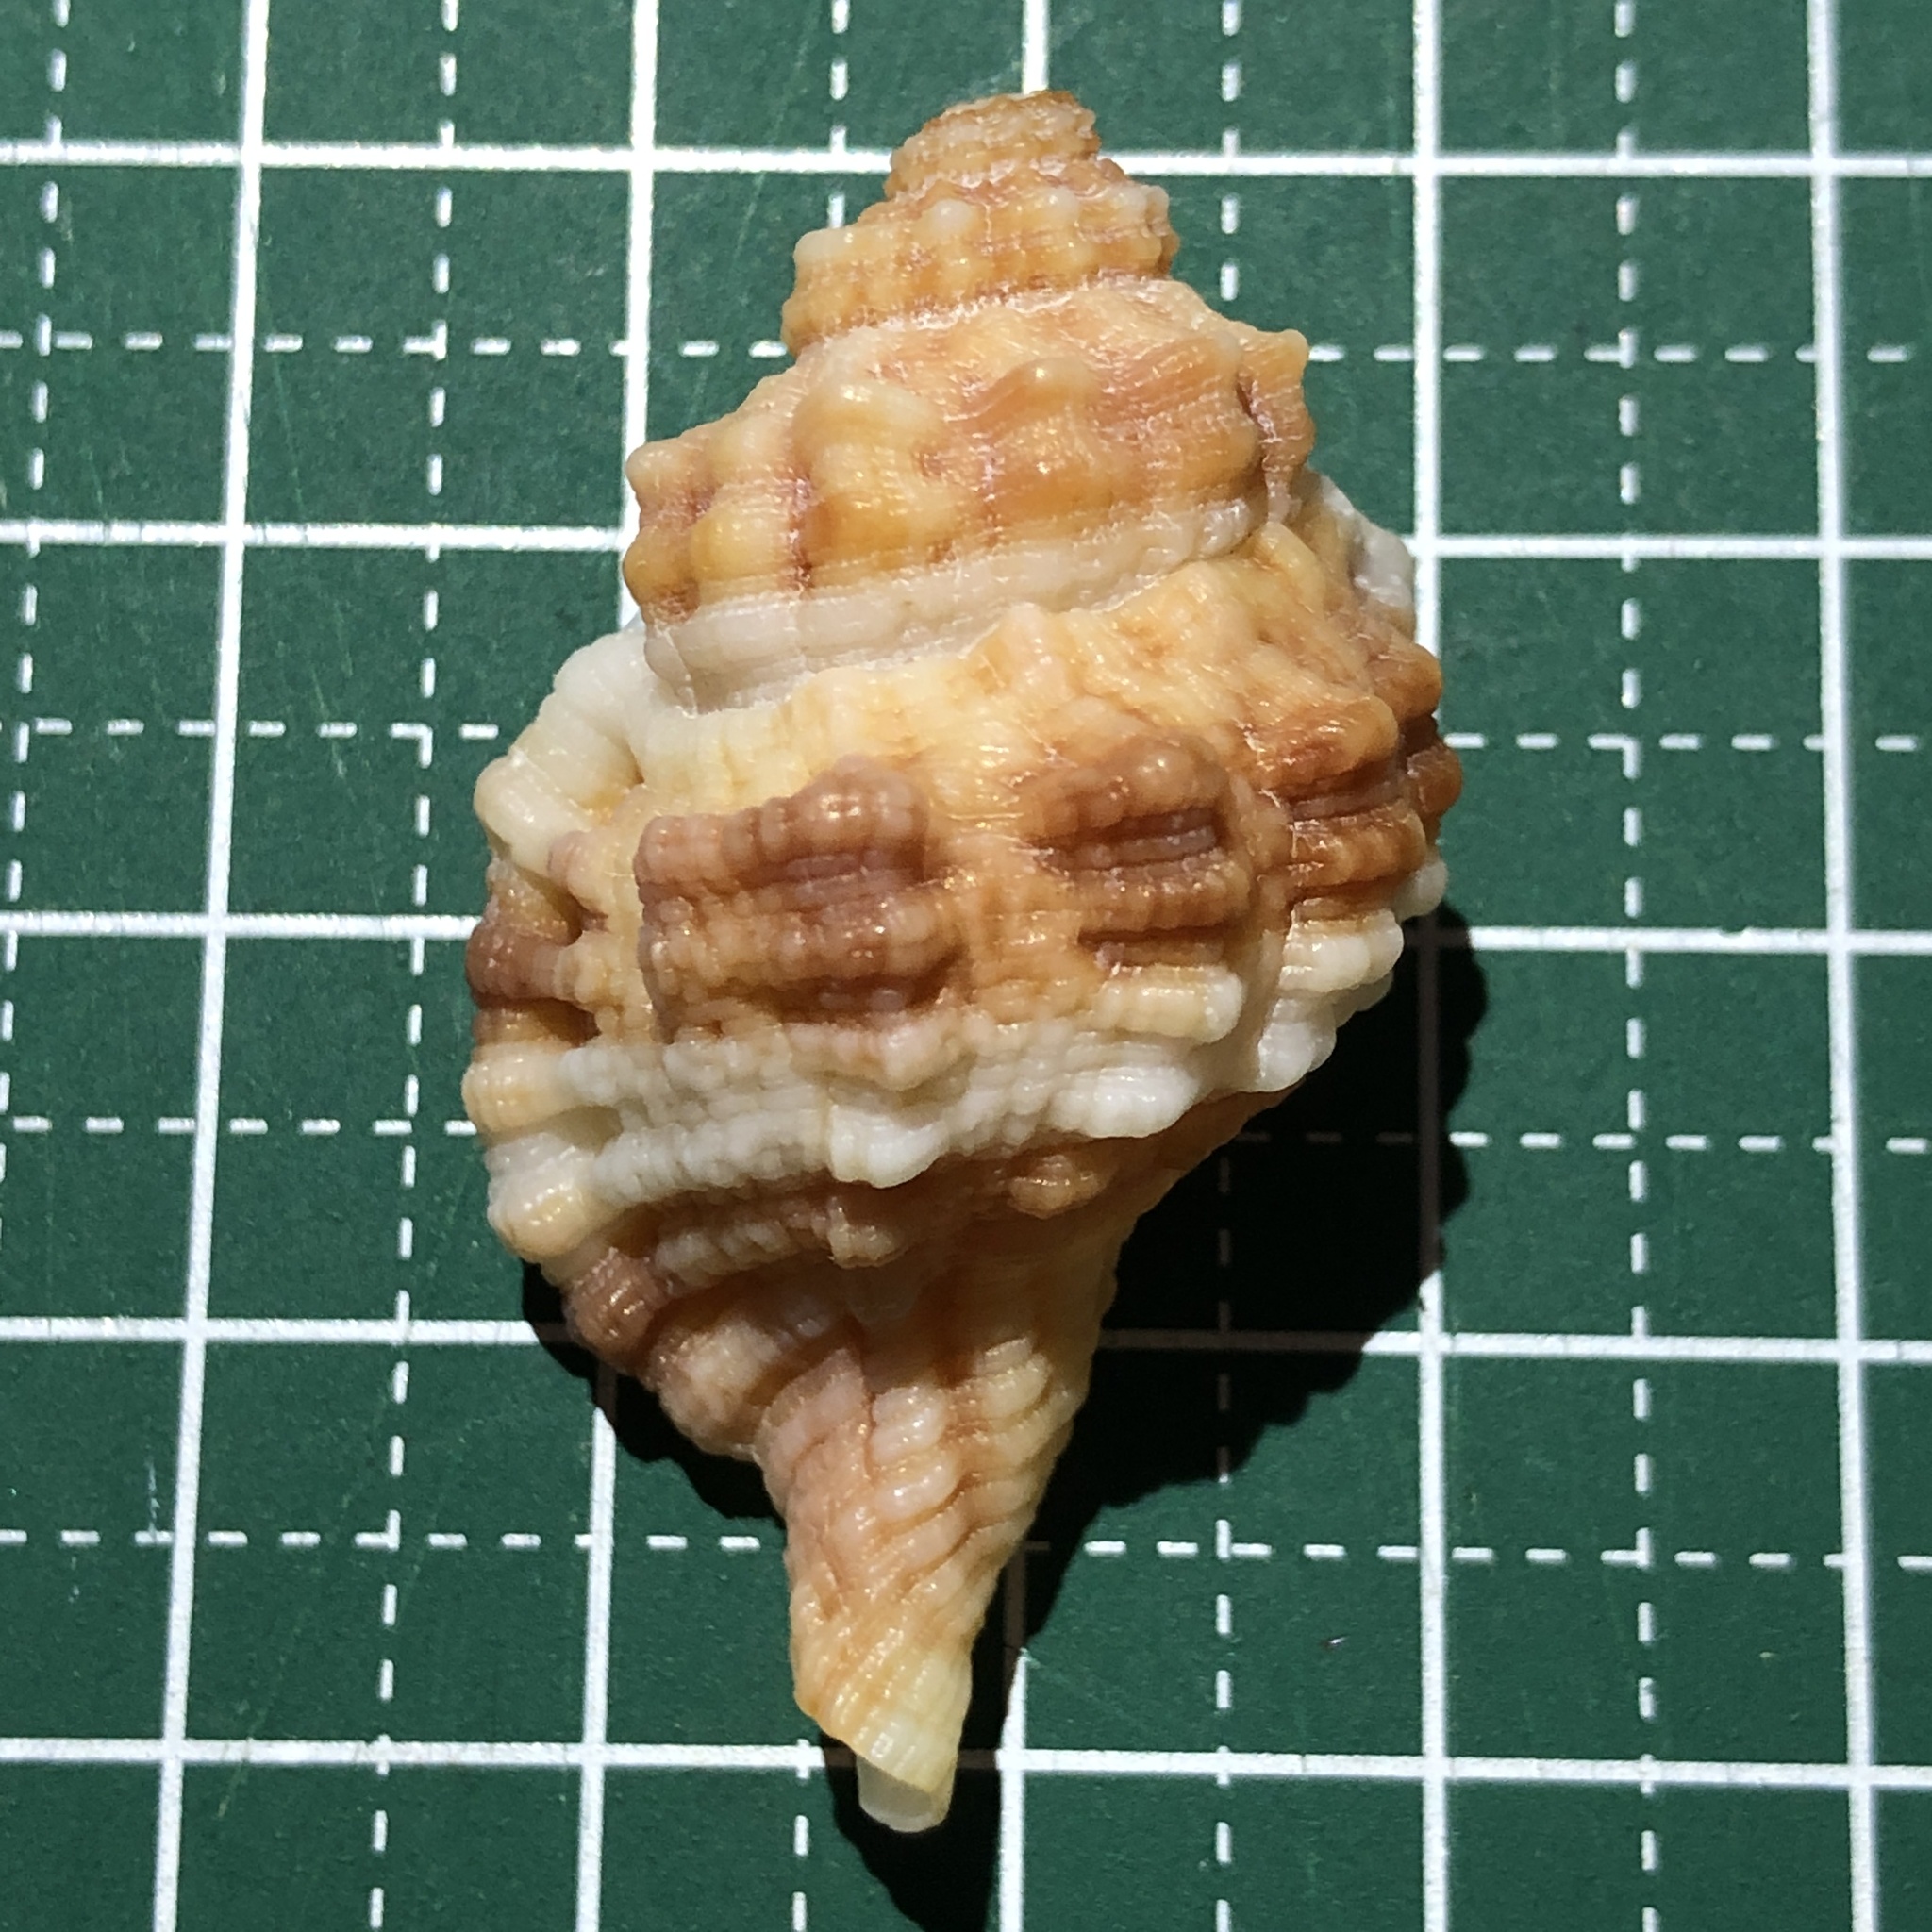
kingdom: Animalia
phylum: Mollusca
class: Gastropoda
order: Littorinimorpha
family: Cymatiidae
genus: Monoplex
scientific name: Monoplex vespaceus
